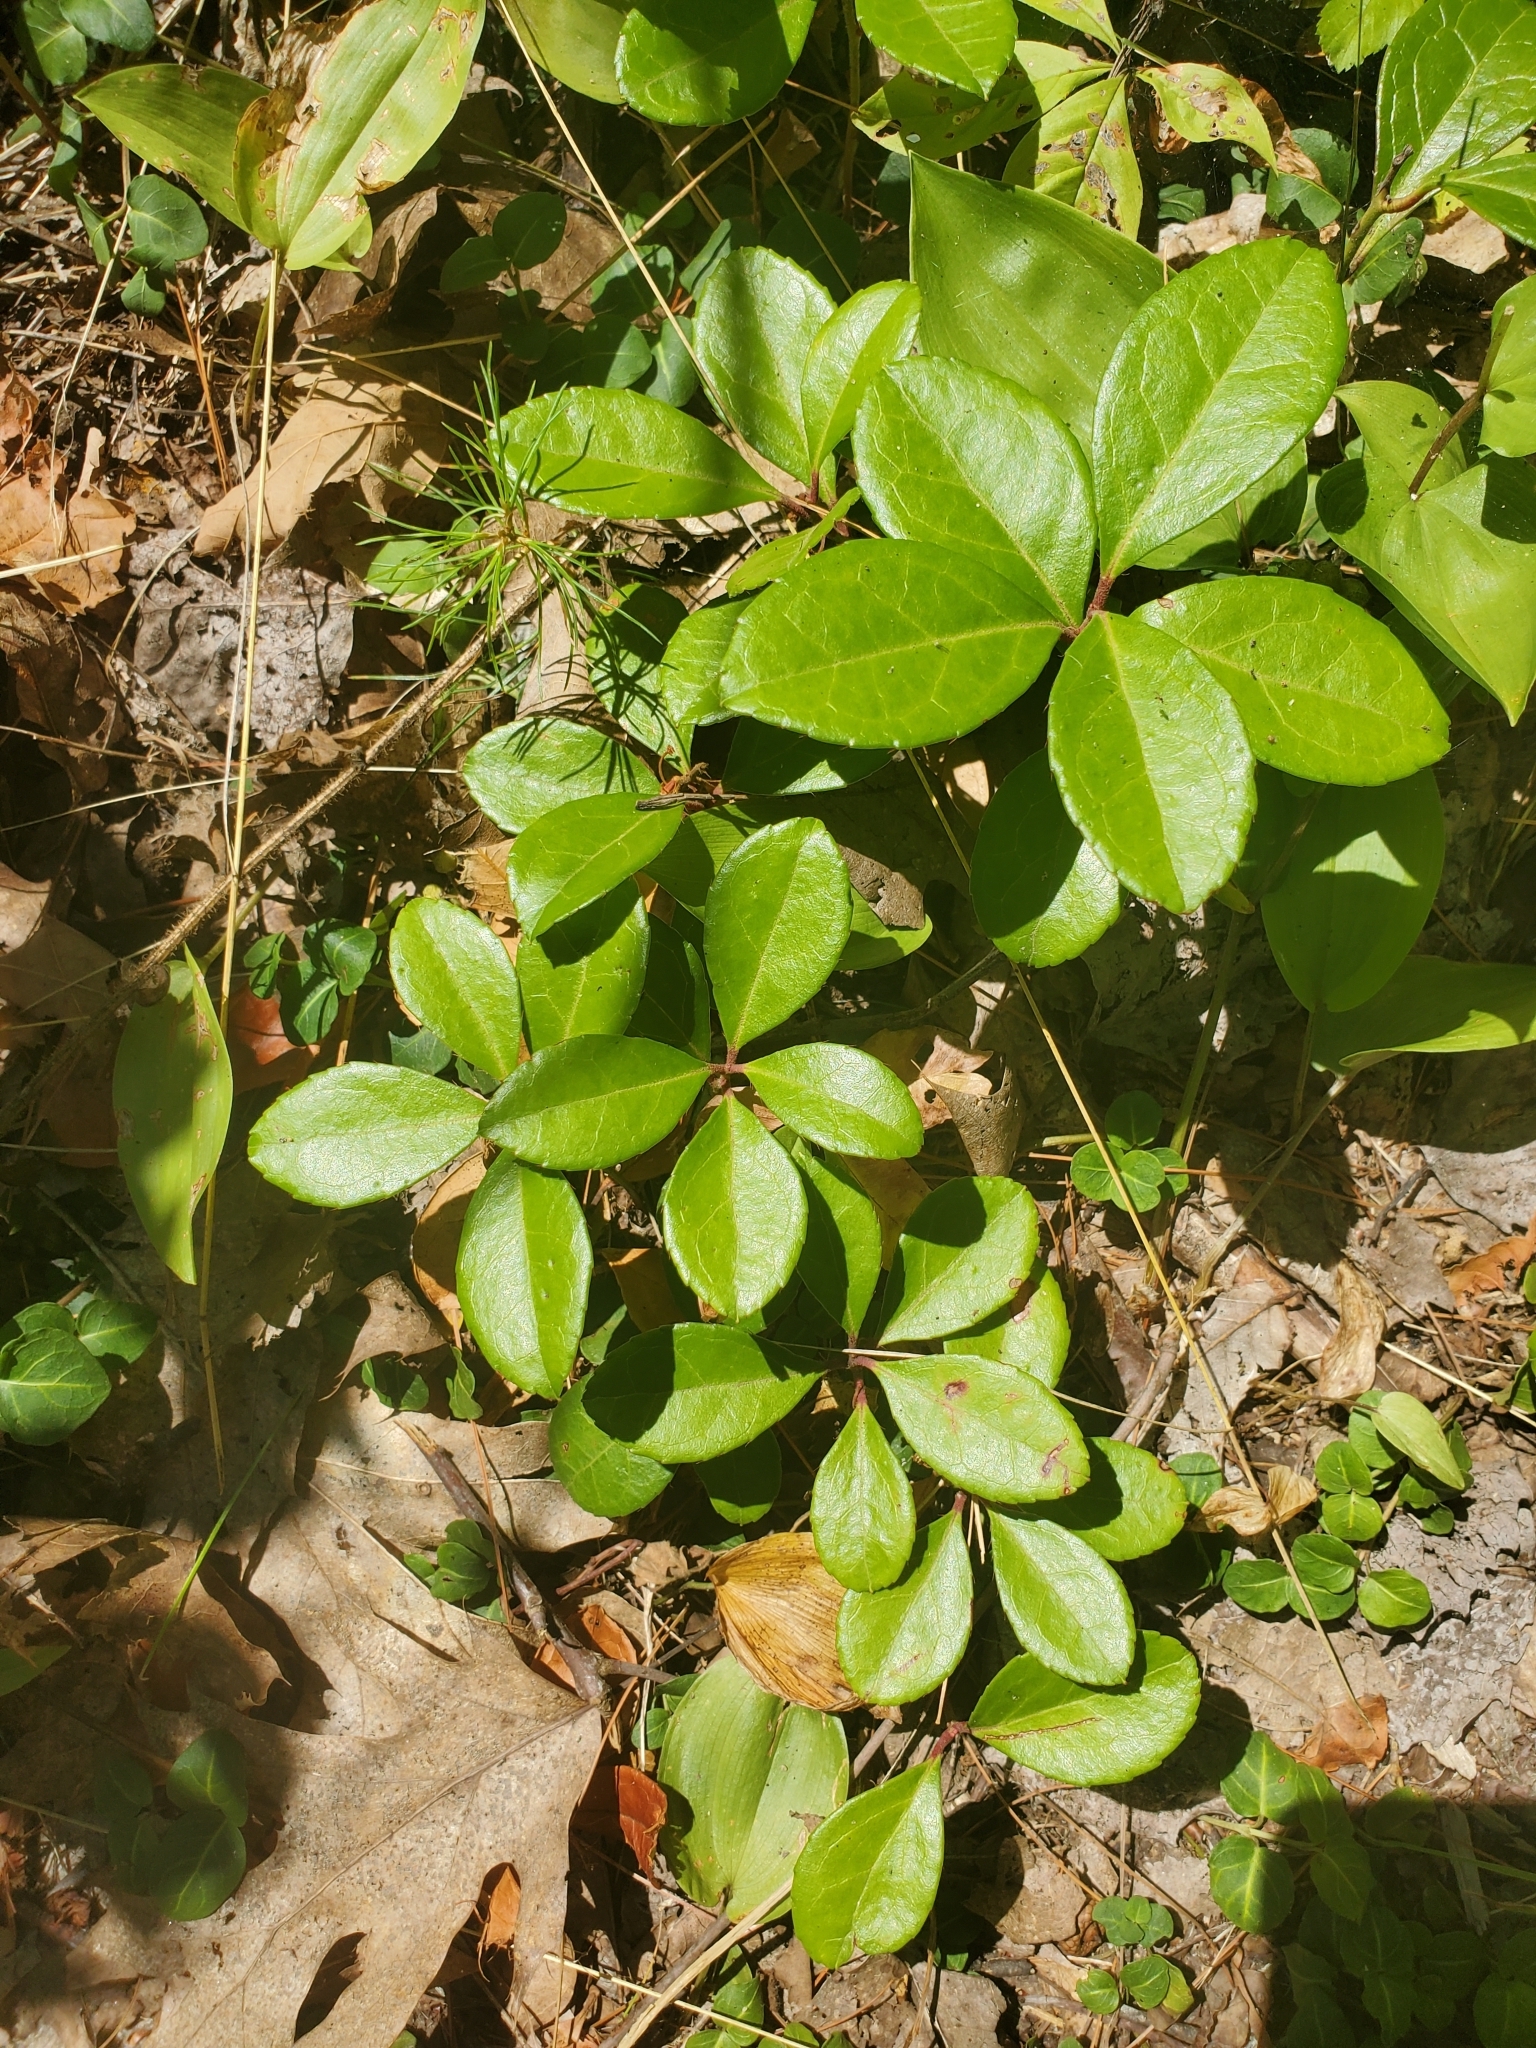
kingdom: Plantae
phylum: Tracheophyta
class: Magnoliopsida
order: Ericales
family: Ericaceae
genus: Gaultheria
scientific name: Gaultheria procumbens
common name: Checkerberry
